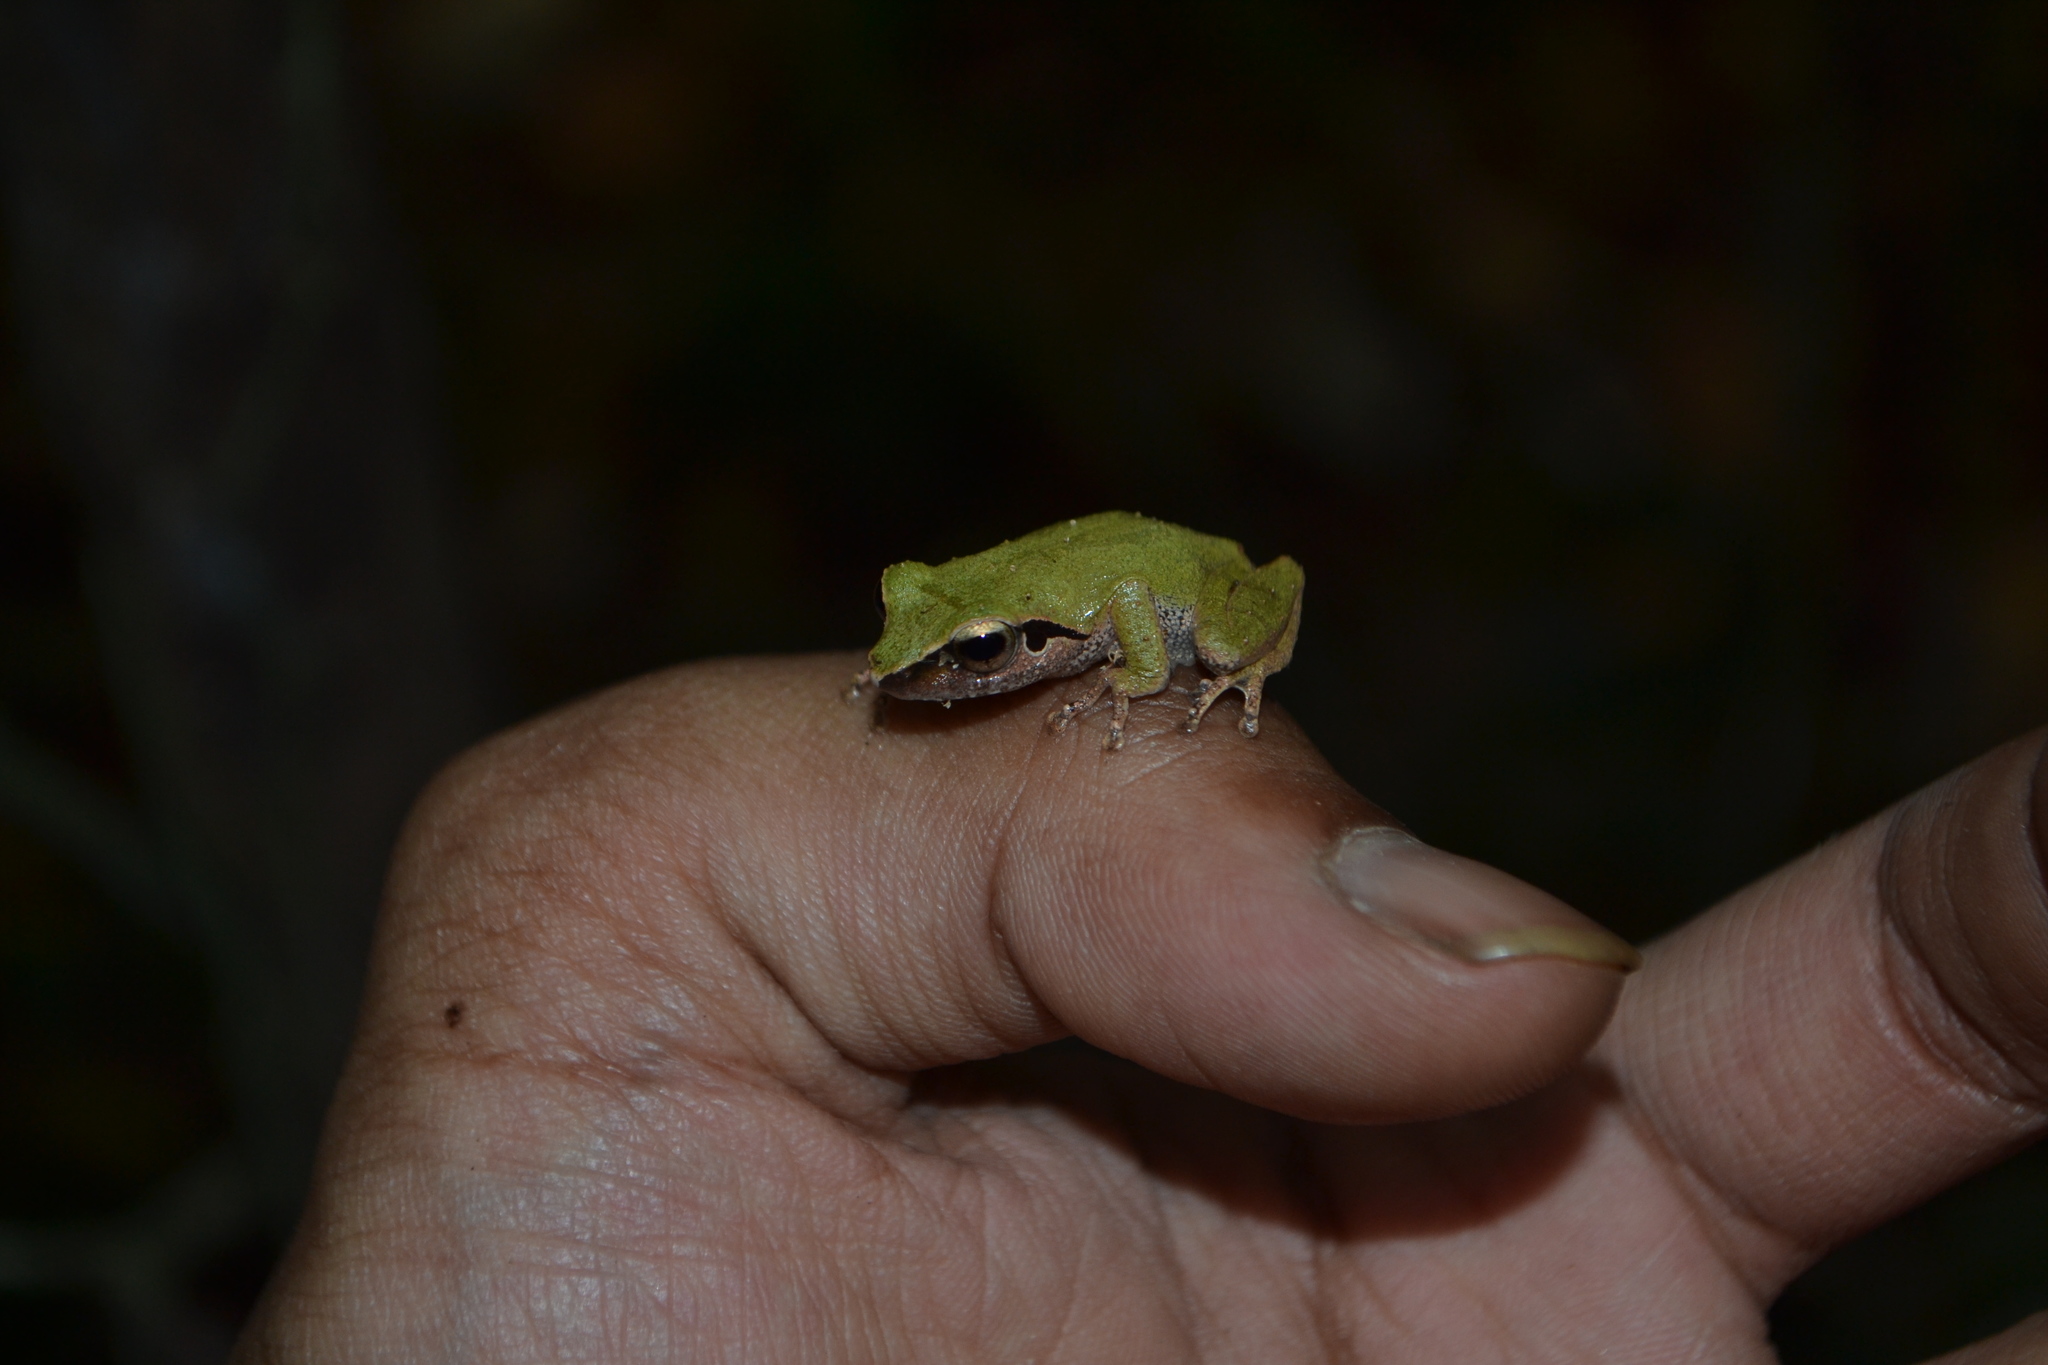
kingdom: Animalia
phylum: Chordata
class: Amphibia
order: Anura
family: Rhacophoridae
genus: Pseudophilautus
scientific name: Pseudophilautus wynaadensis
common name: Dark-eared bush frog
